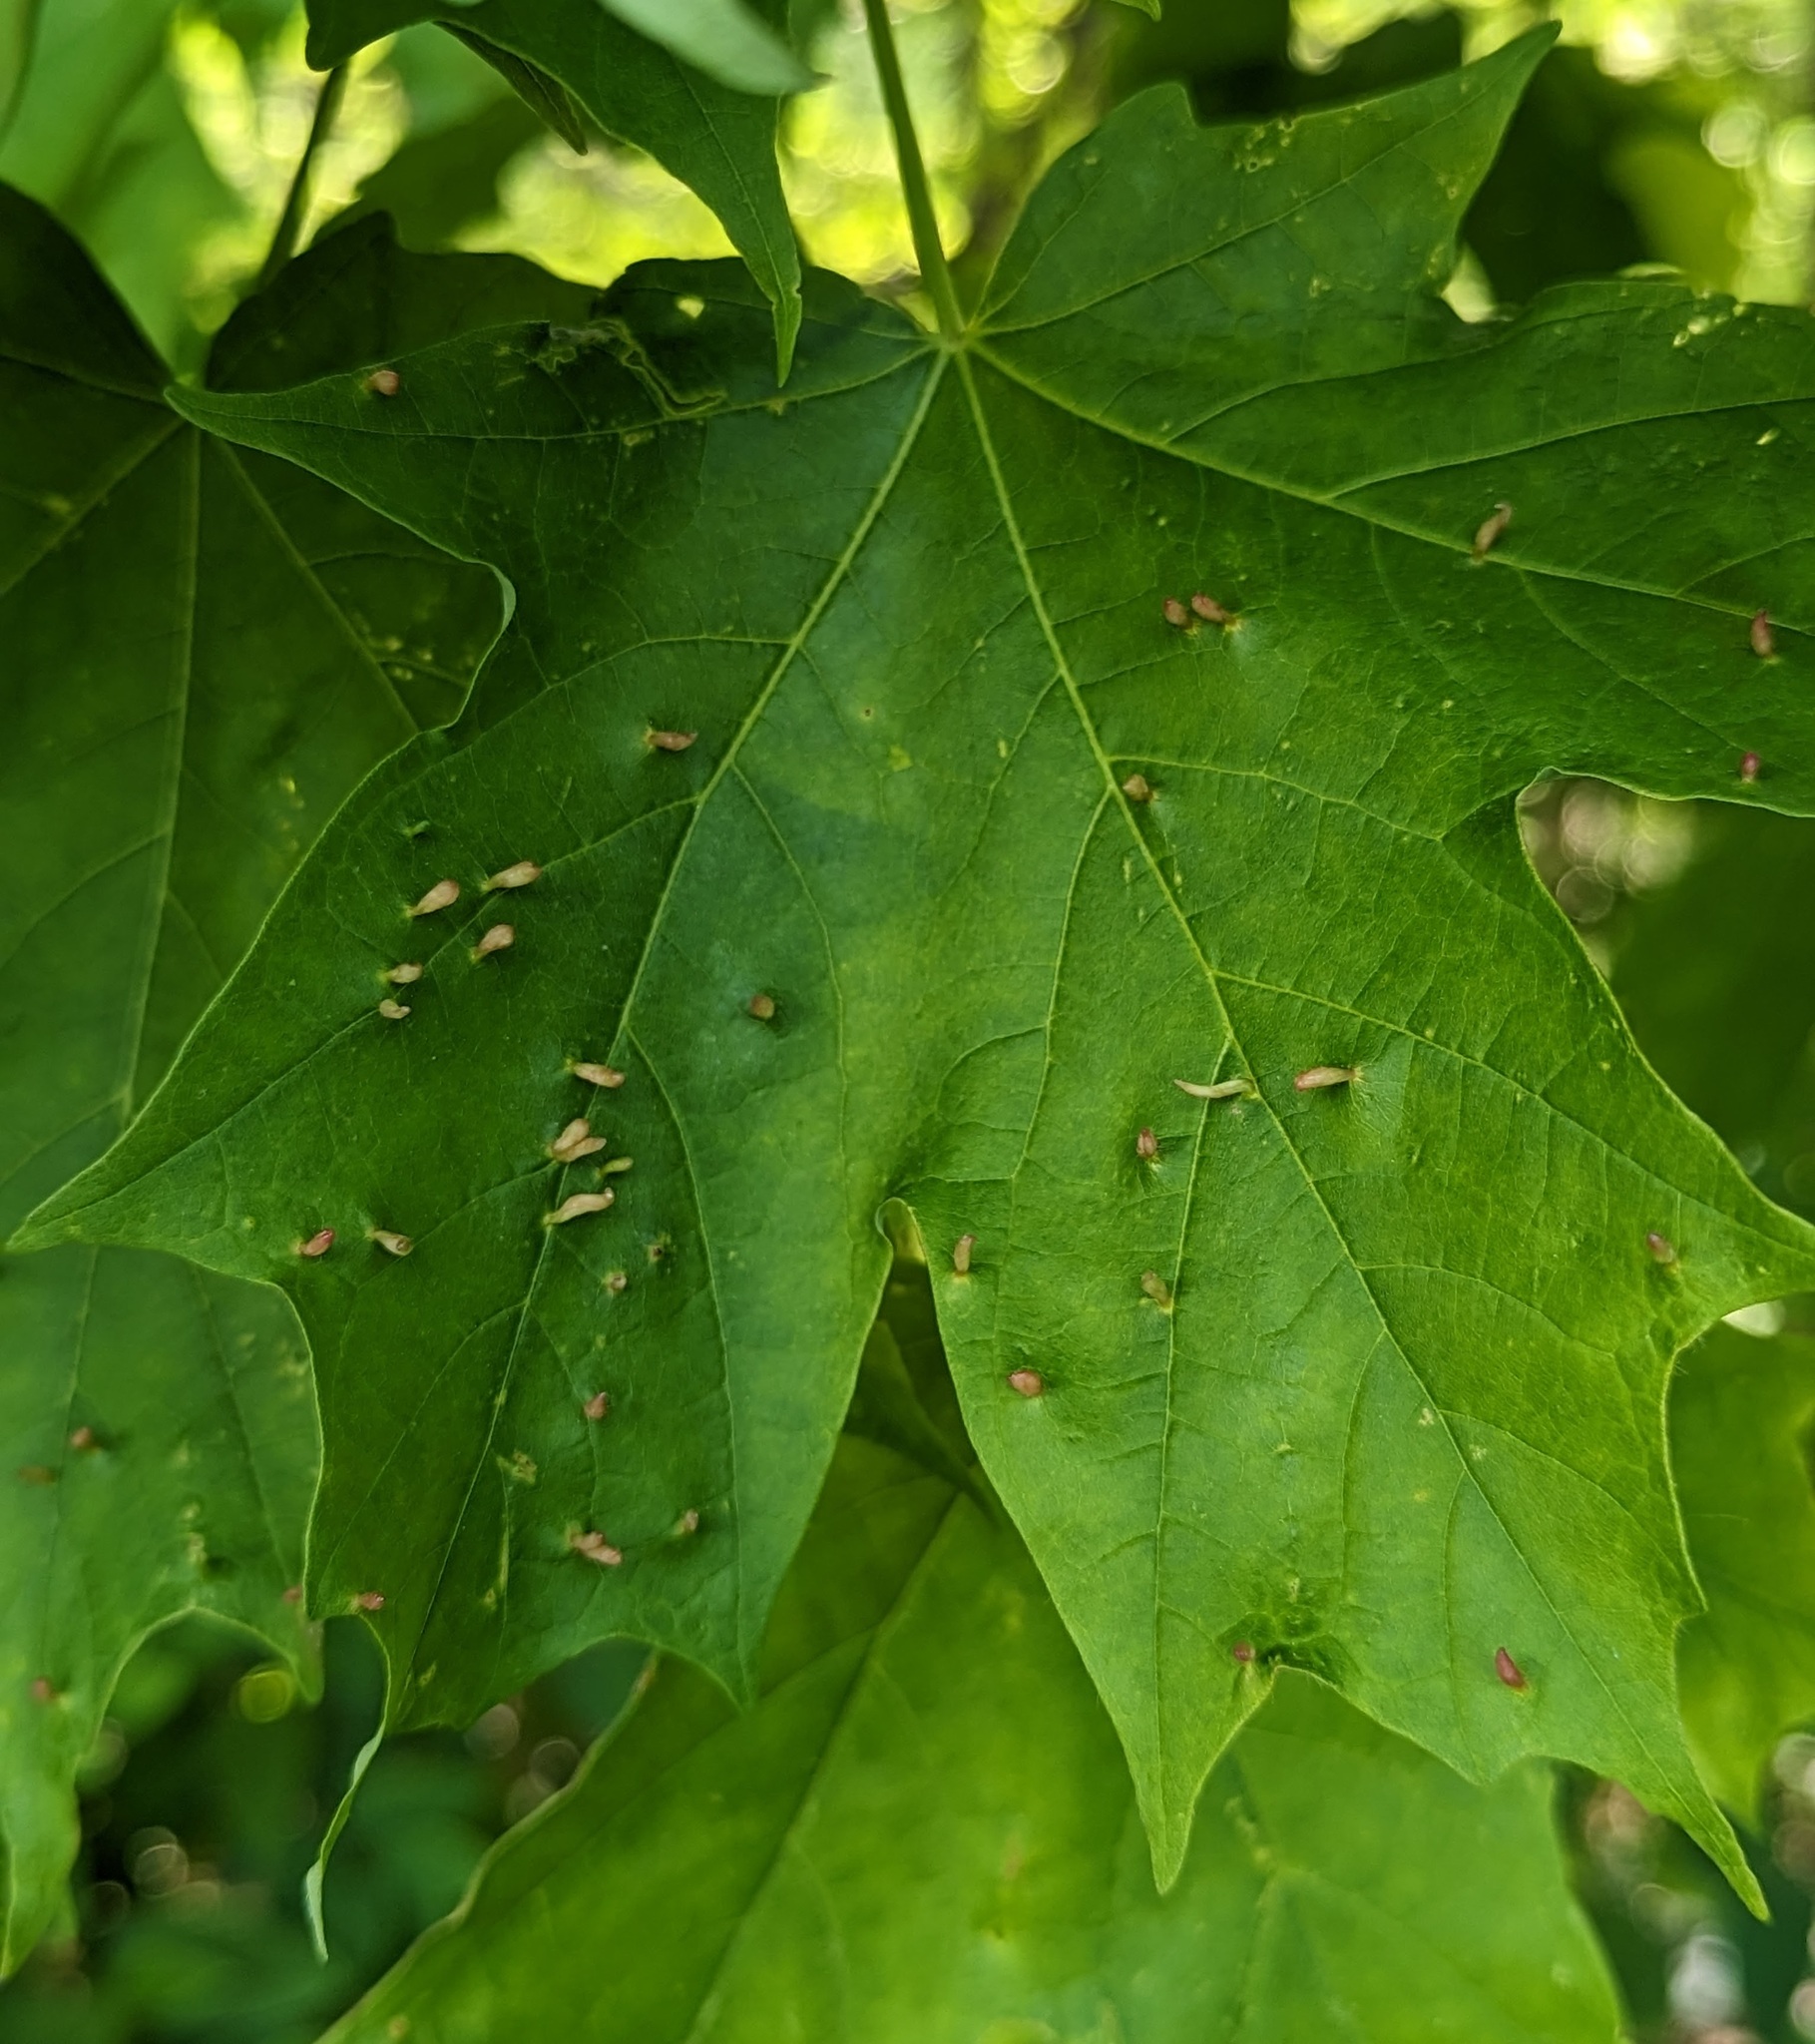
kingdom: Animalia
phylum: Arthropoda
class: Arachnida
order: Trombidiformes
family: Eriophyidae
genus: Vasates
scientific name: Vasates aceriscrumena
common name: Maple spindle gall mite
